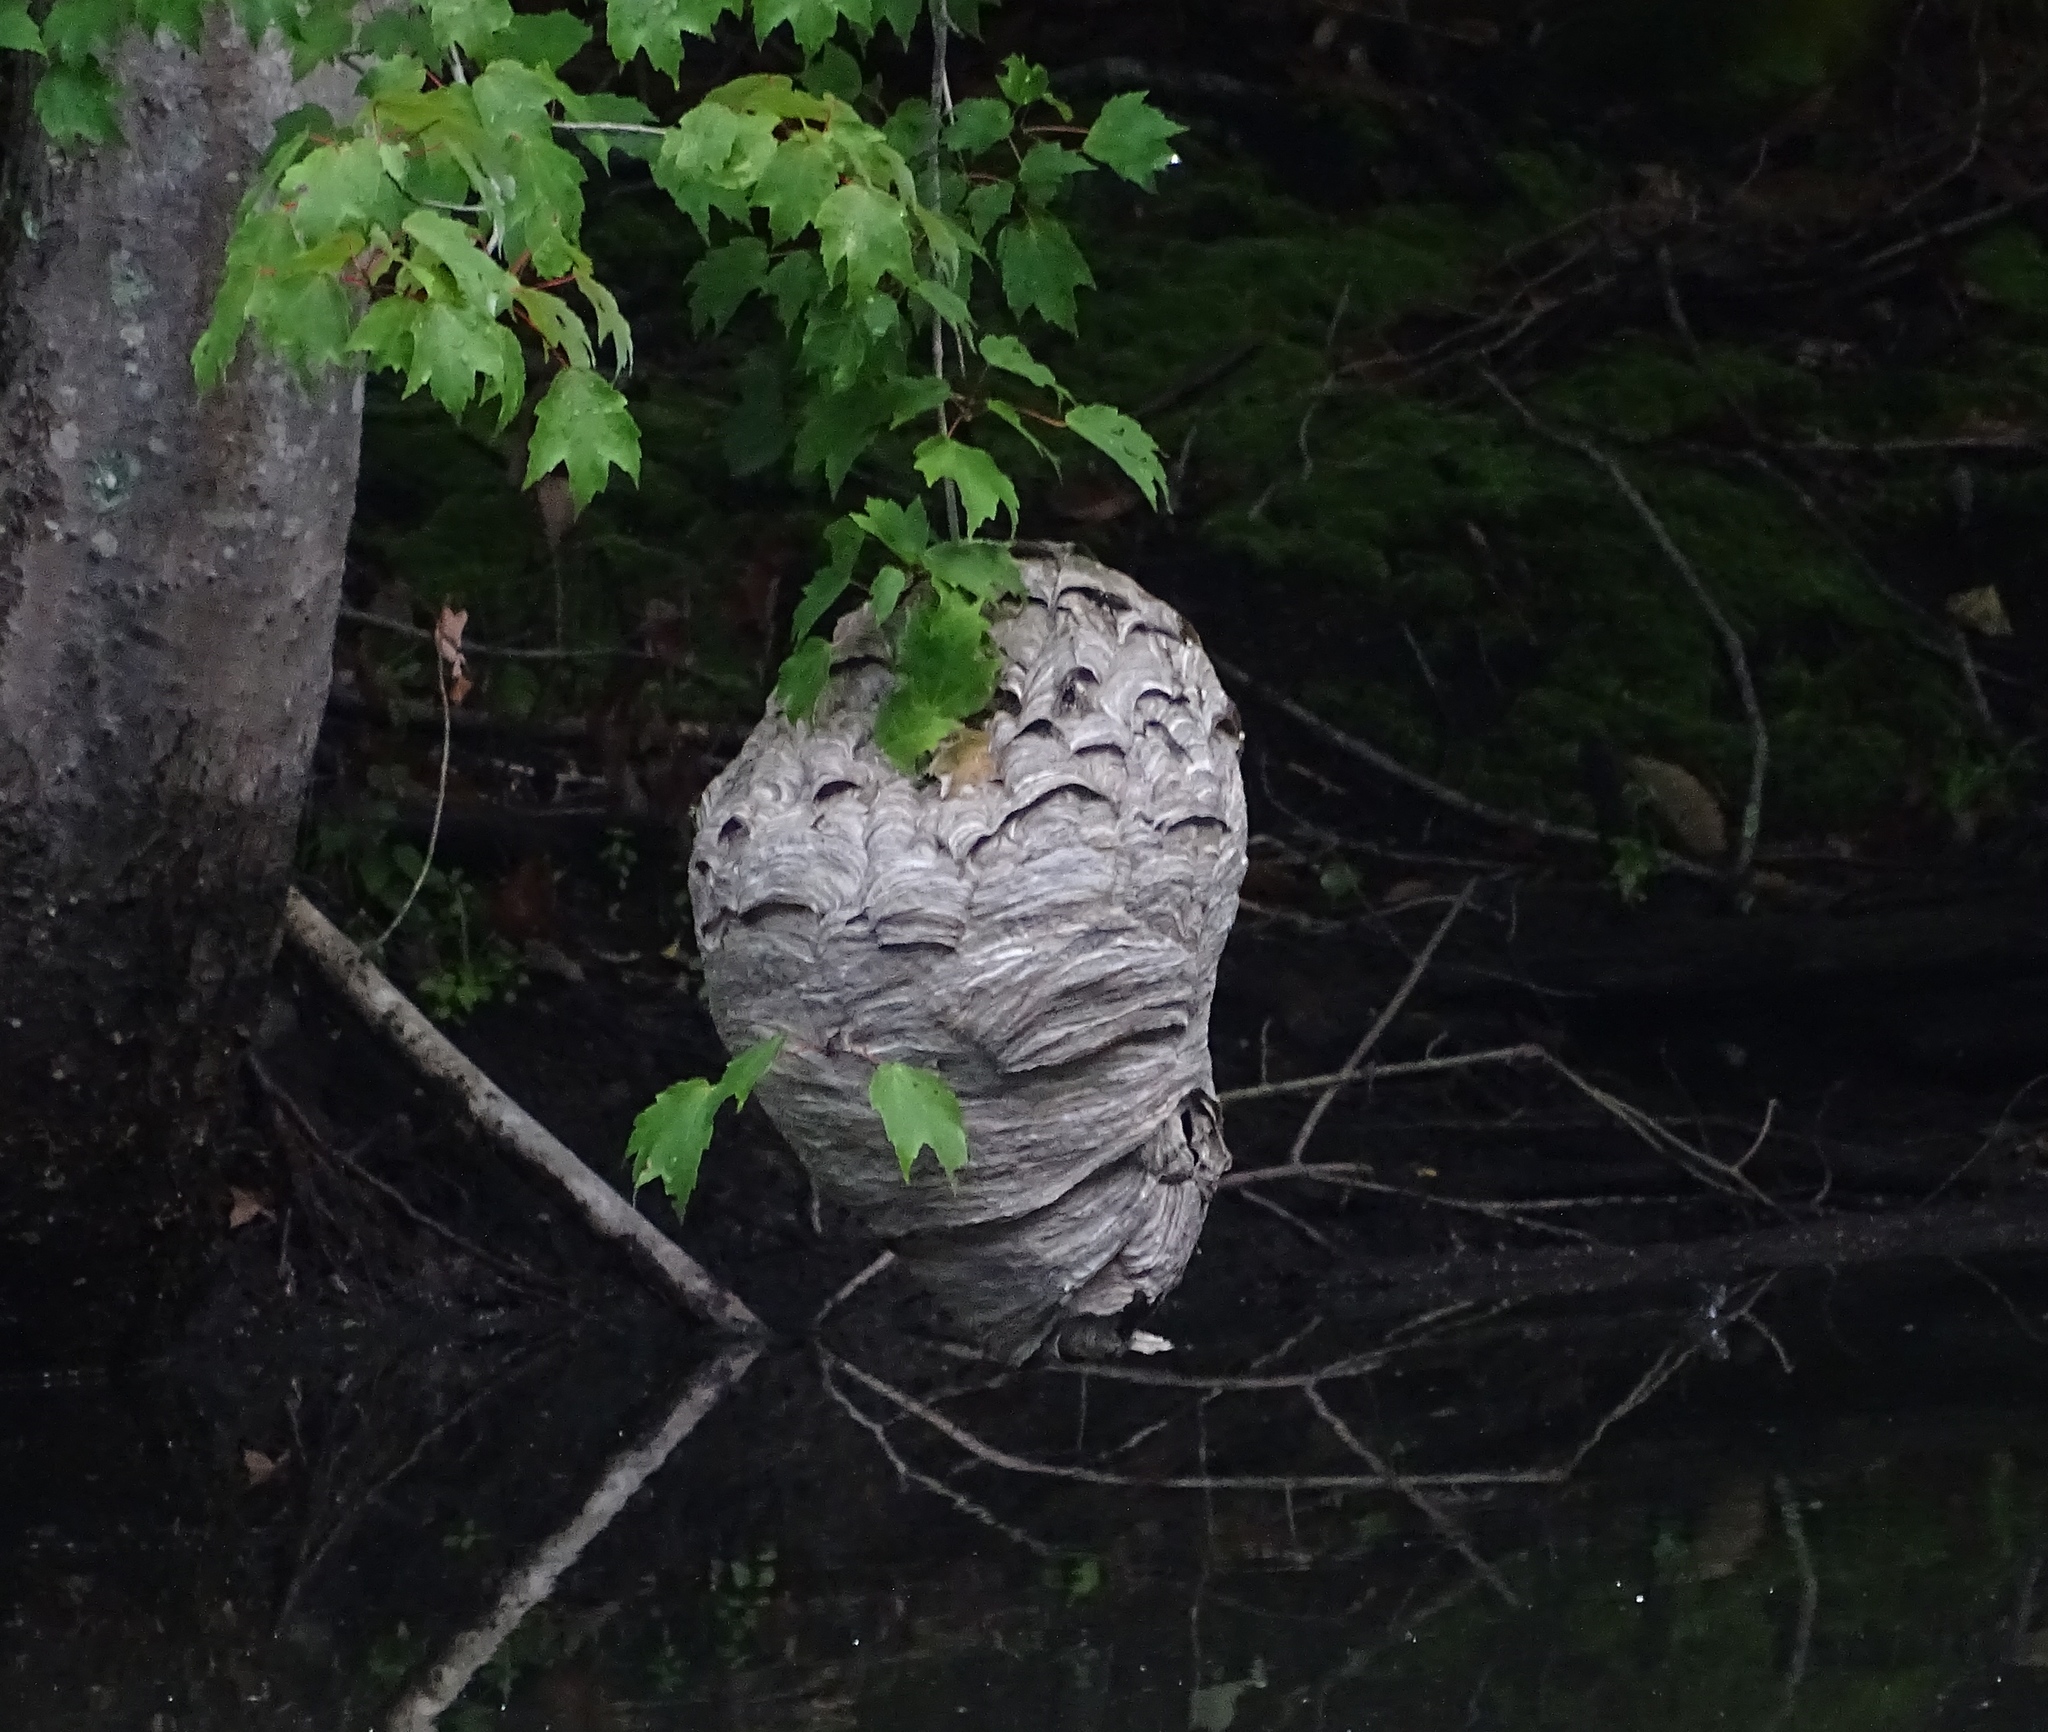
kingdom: Animalia
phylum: Arthropoda
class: Insecta
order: Hymenoptera
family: Vespidae
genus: Dolichovespula
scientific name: Dolichovespula maculata
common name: Bald-faced hornet
